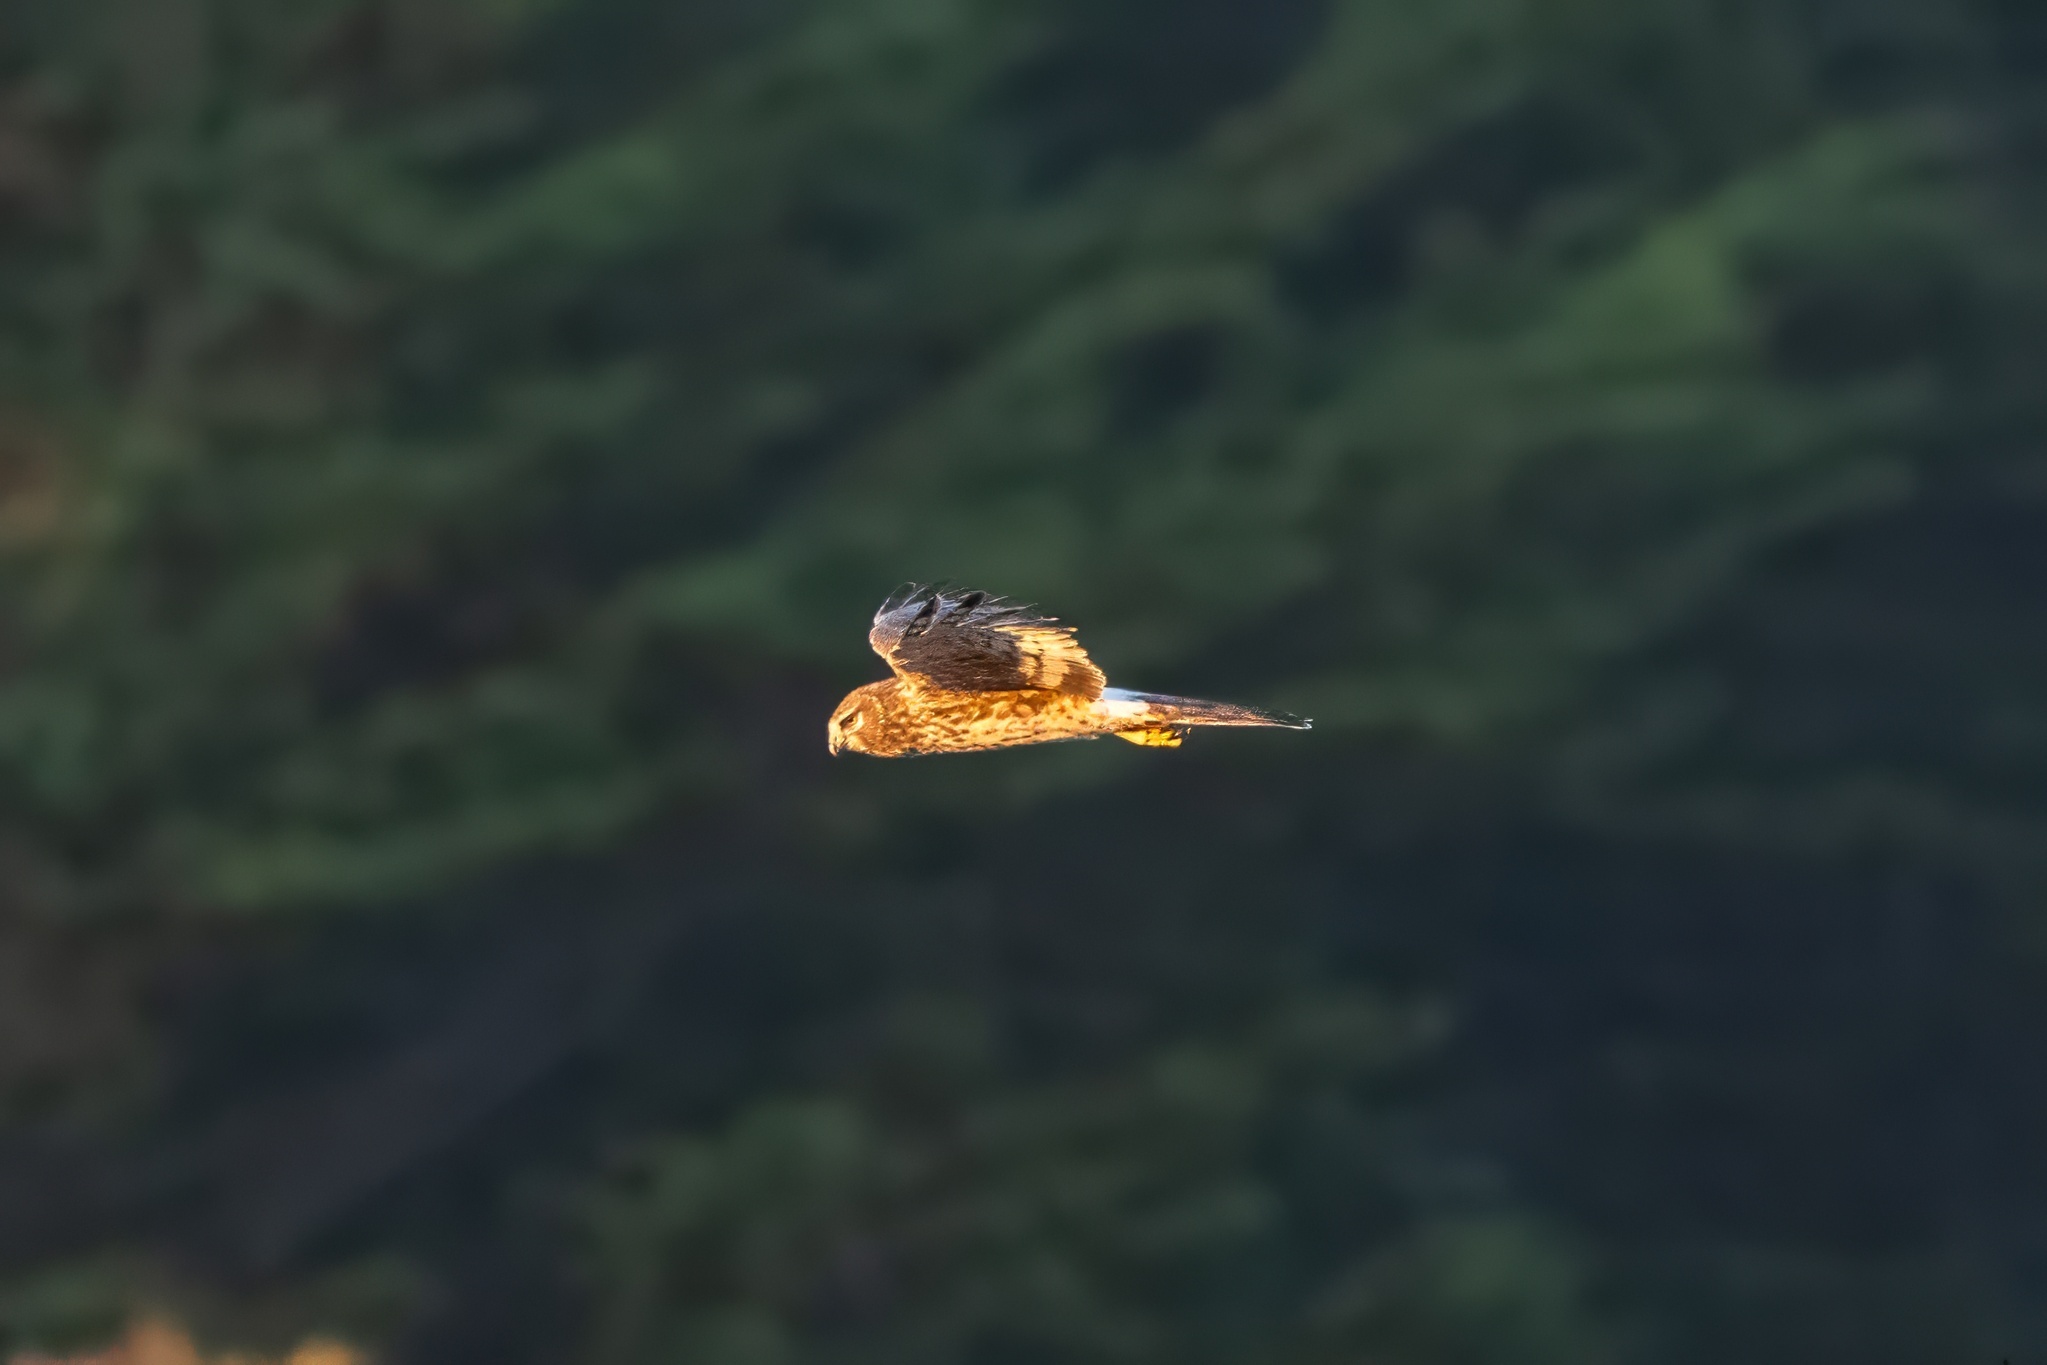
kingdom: Animalia
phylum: Chordata
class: Aves
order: Accipitriformes
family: Accipitridae
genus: Circus
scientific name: Circus cyaneus
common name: Hen harrier
